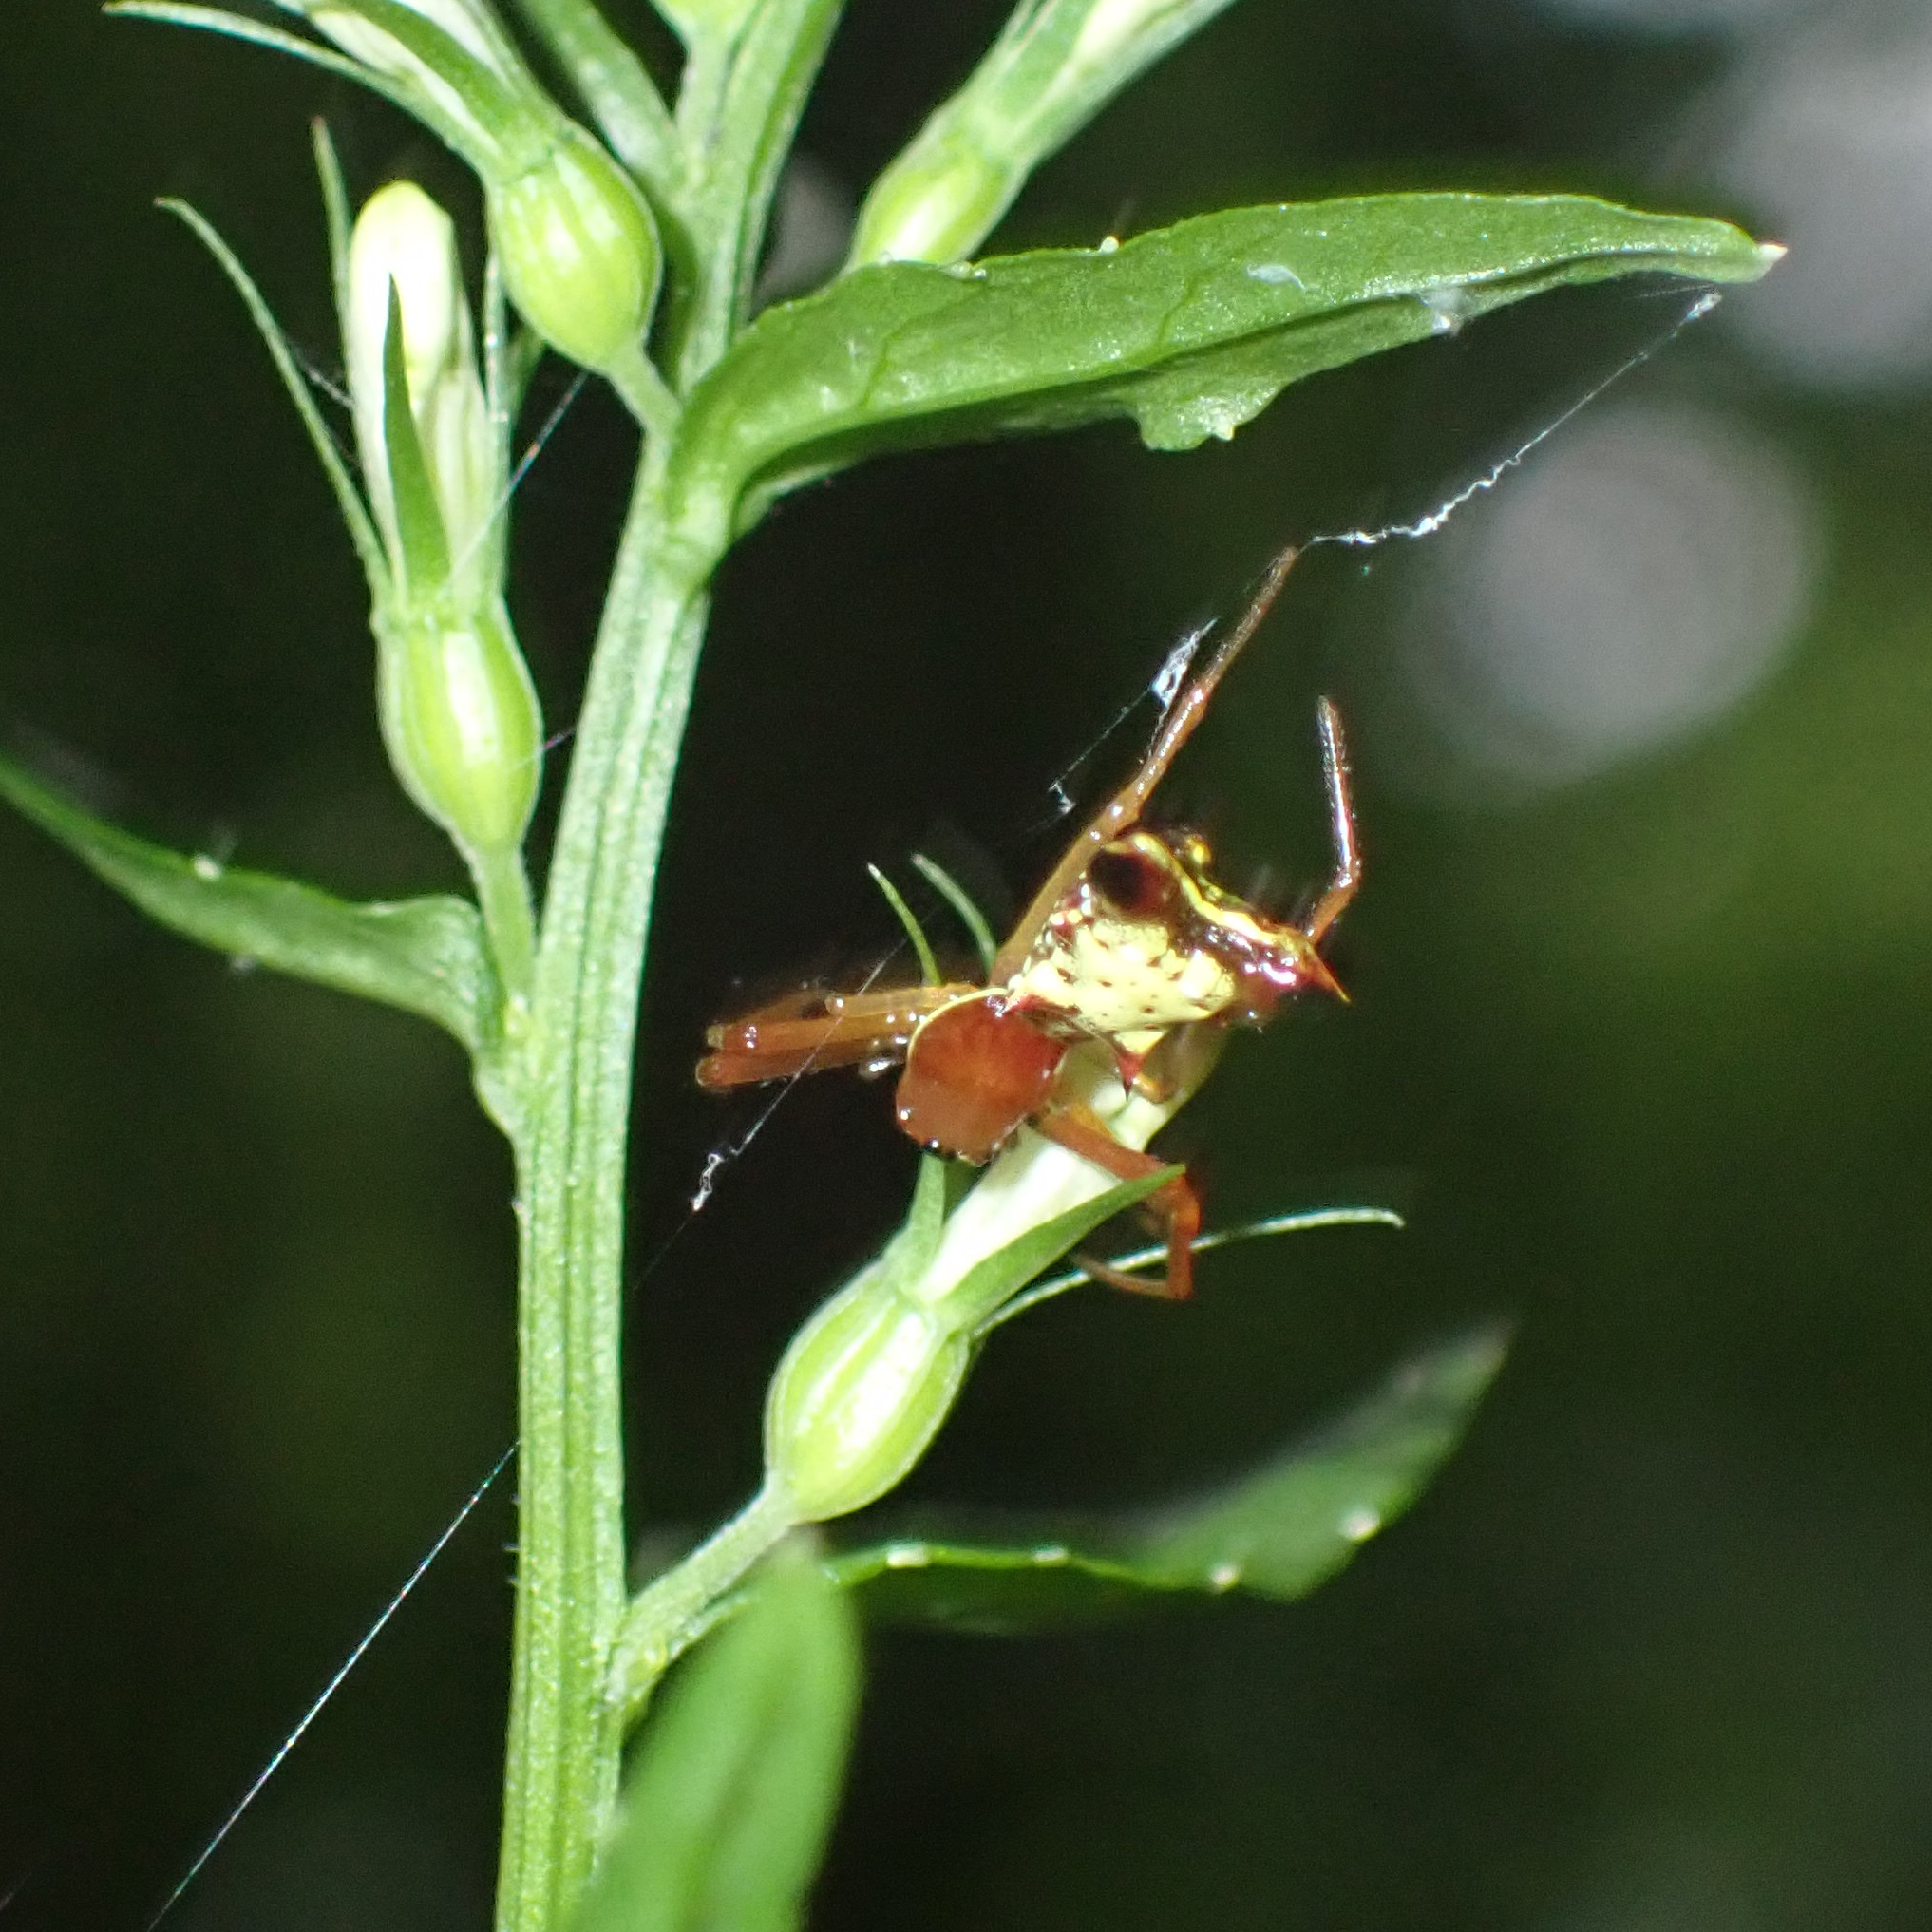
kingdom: Animalia
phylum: Arthropoda
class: Arachnida
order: Araneae
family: Araneidae
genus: Micrathena
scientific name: Micrathena sagittata
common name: Orb weavers
